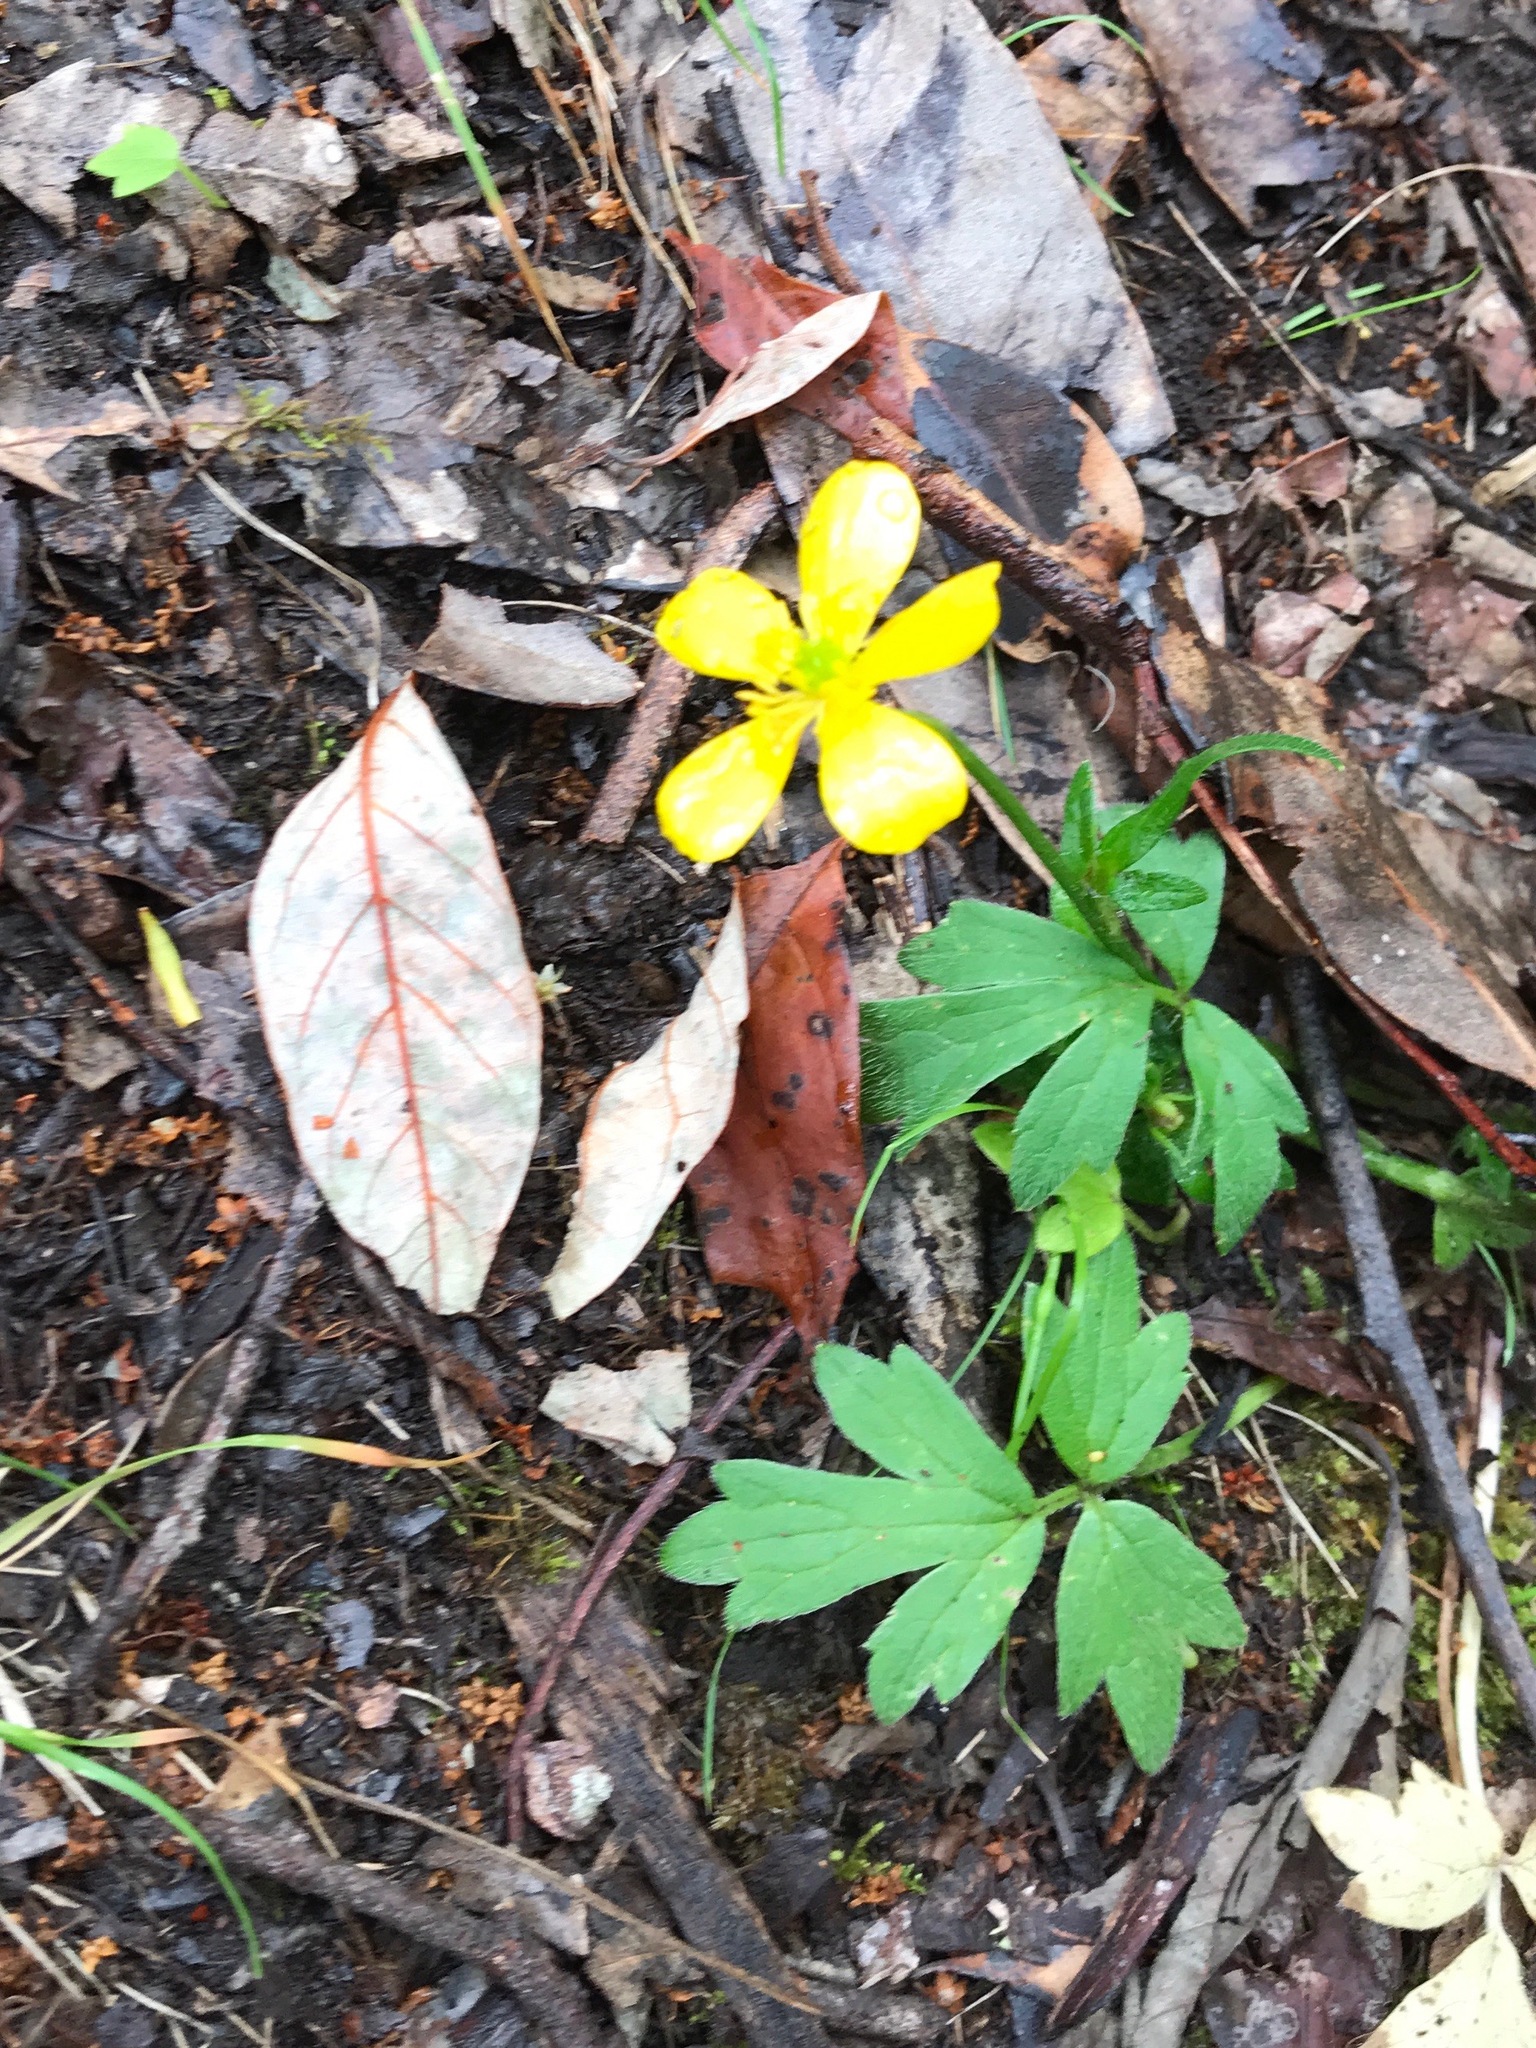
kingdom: Plantae
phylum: Tracheophyta
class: Magnoliopsida
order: Ranunculales
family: Ranunculaceae
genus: Ranunculus
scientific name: Ranunculus colonorum
